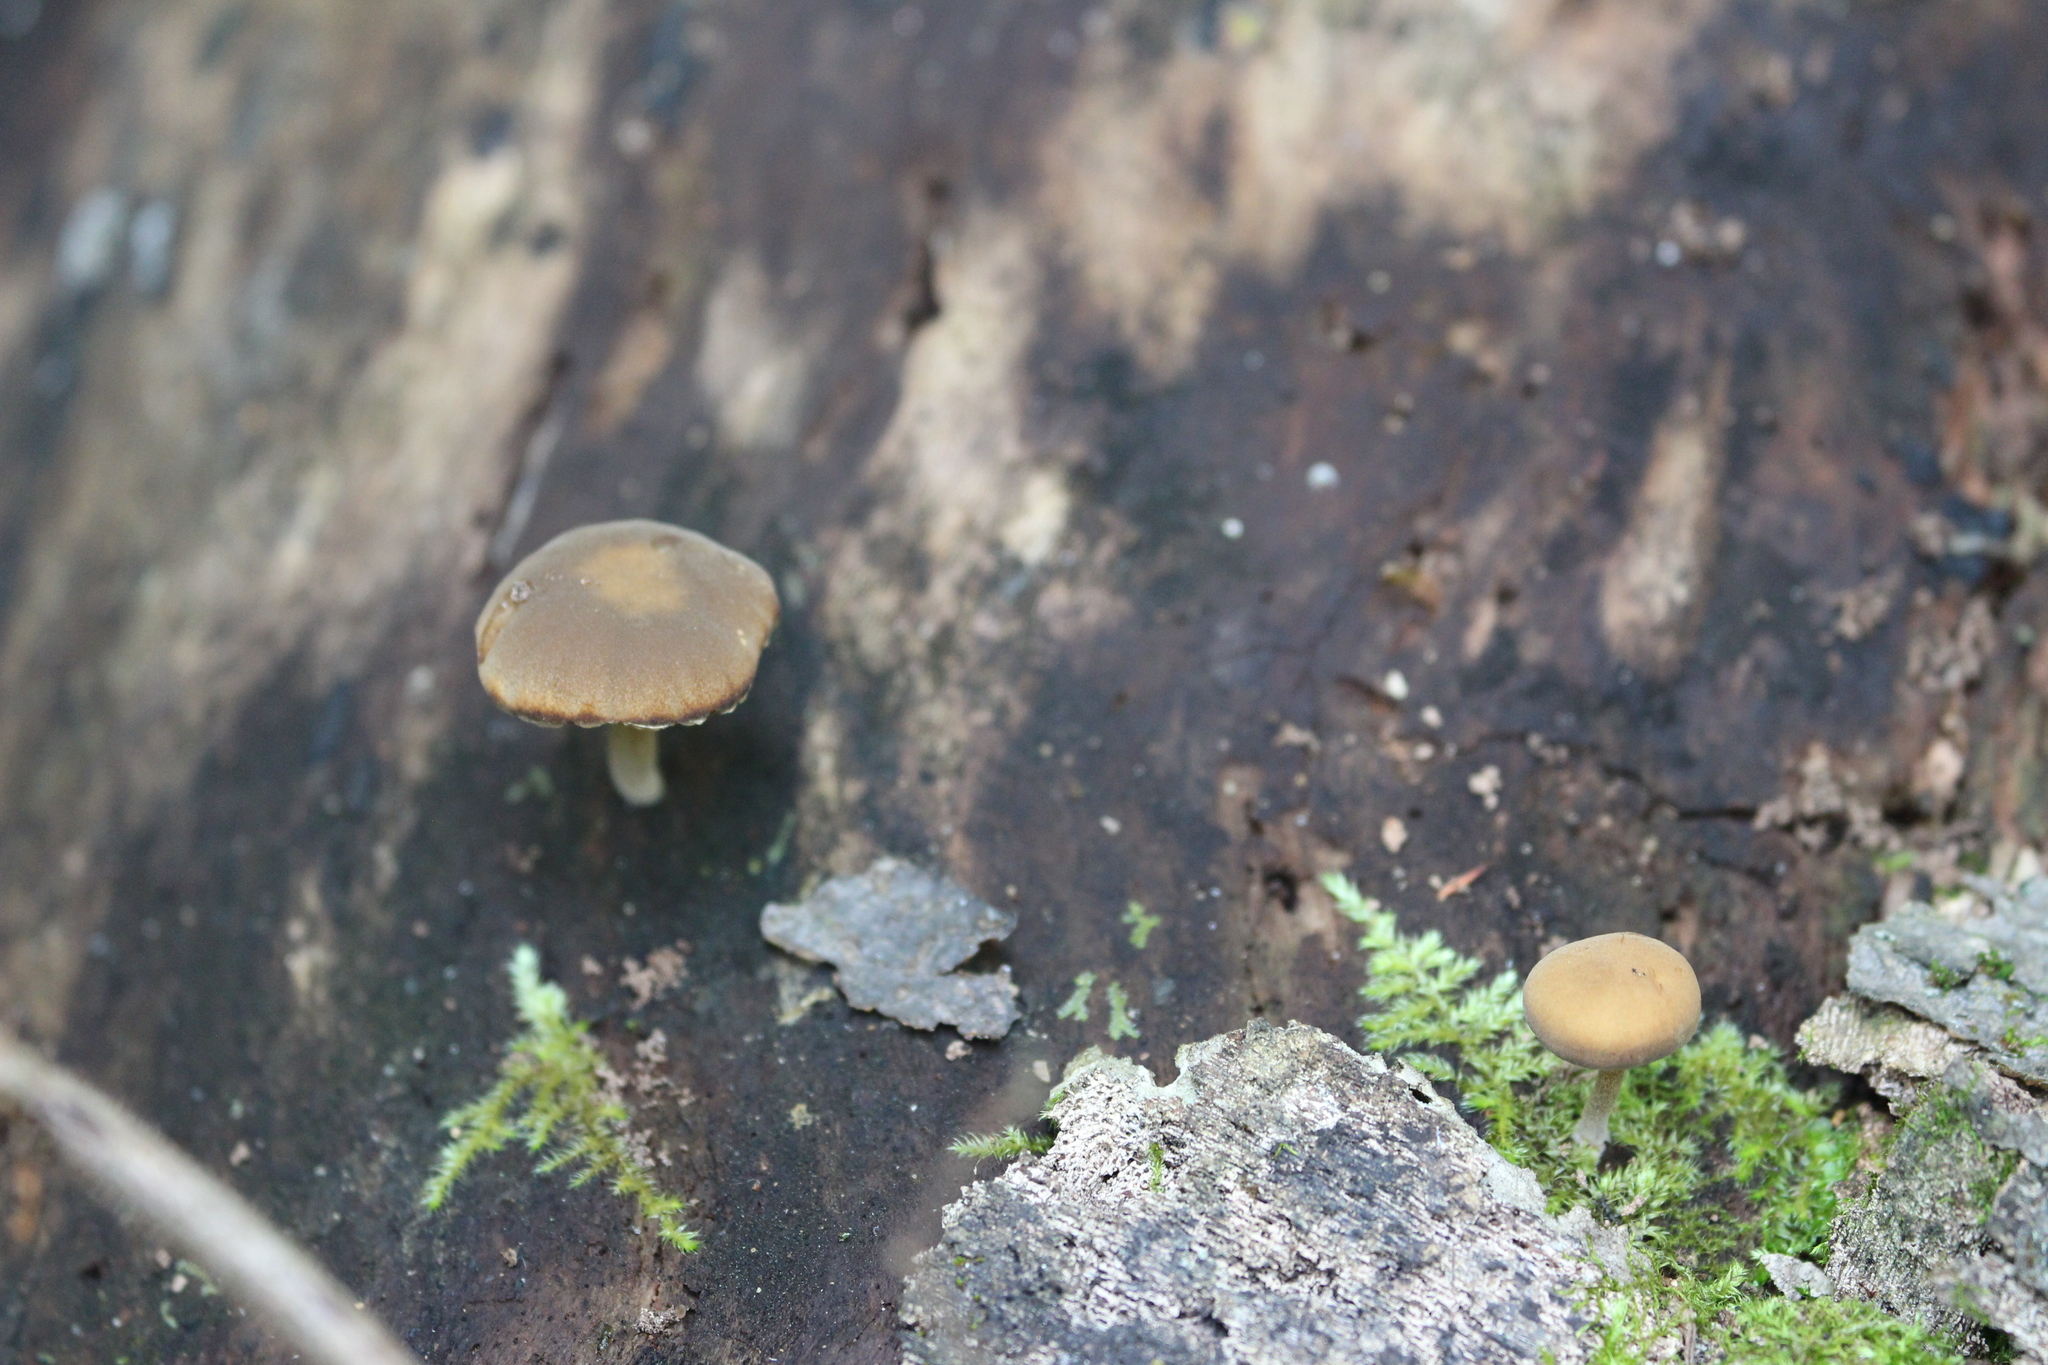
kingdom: Fungi
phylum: Basidiomycota
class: Agaricomycetes
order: Agaricales
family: Crepidotaceae
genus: Simocybe
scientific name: Simocybe centunculus
